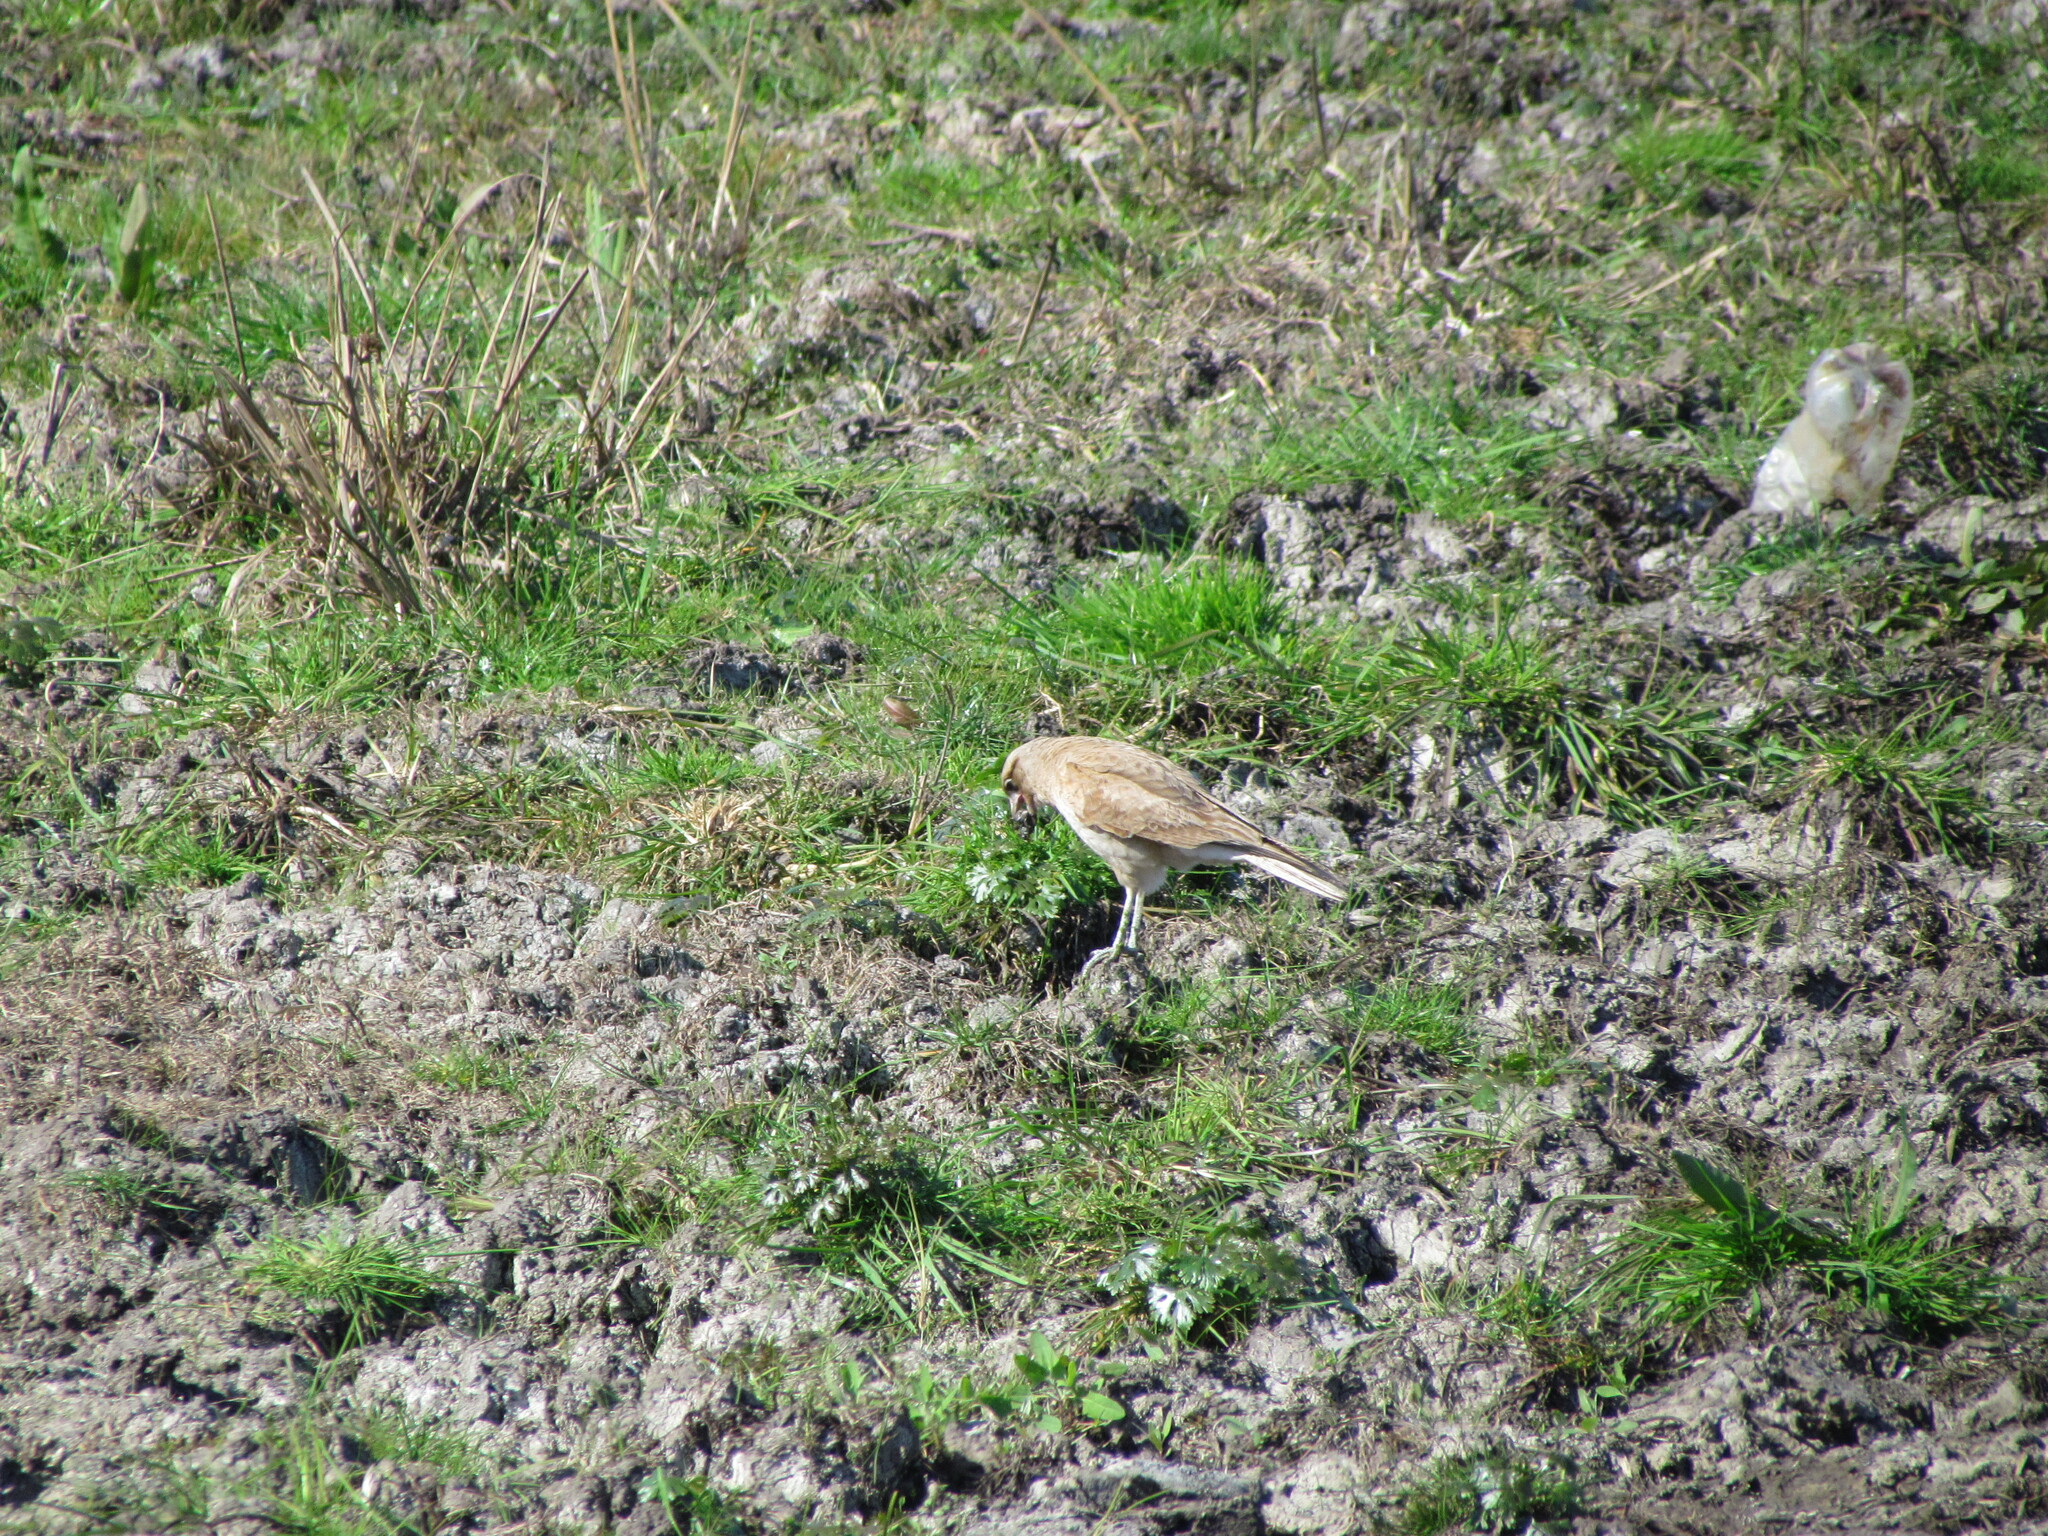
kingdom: Animalia
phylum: Chordata
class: Aves
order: Falconiformes
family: Falconidae
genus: Daptrius
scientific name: Daptrius
